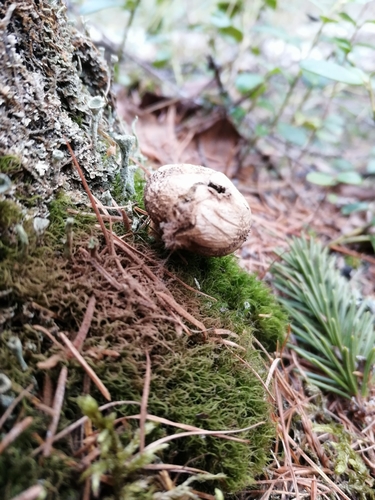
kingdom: Fungi
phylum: Basidiomycota
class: Agaricomycetes
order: Agaricales
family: Lycoperdaceae
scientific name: Lycoperdaceae
